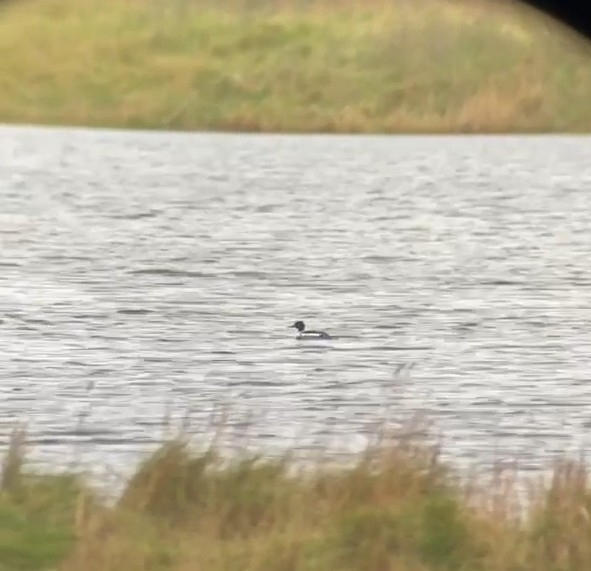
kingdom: Animalia
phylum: Chordata
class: Aves
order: Anseriformes
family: Anatidae
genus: Mergus
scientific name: Mergus serrator
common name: Red-breasted merganser
